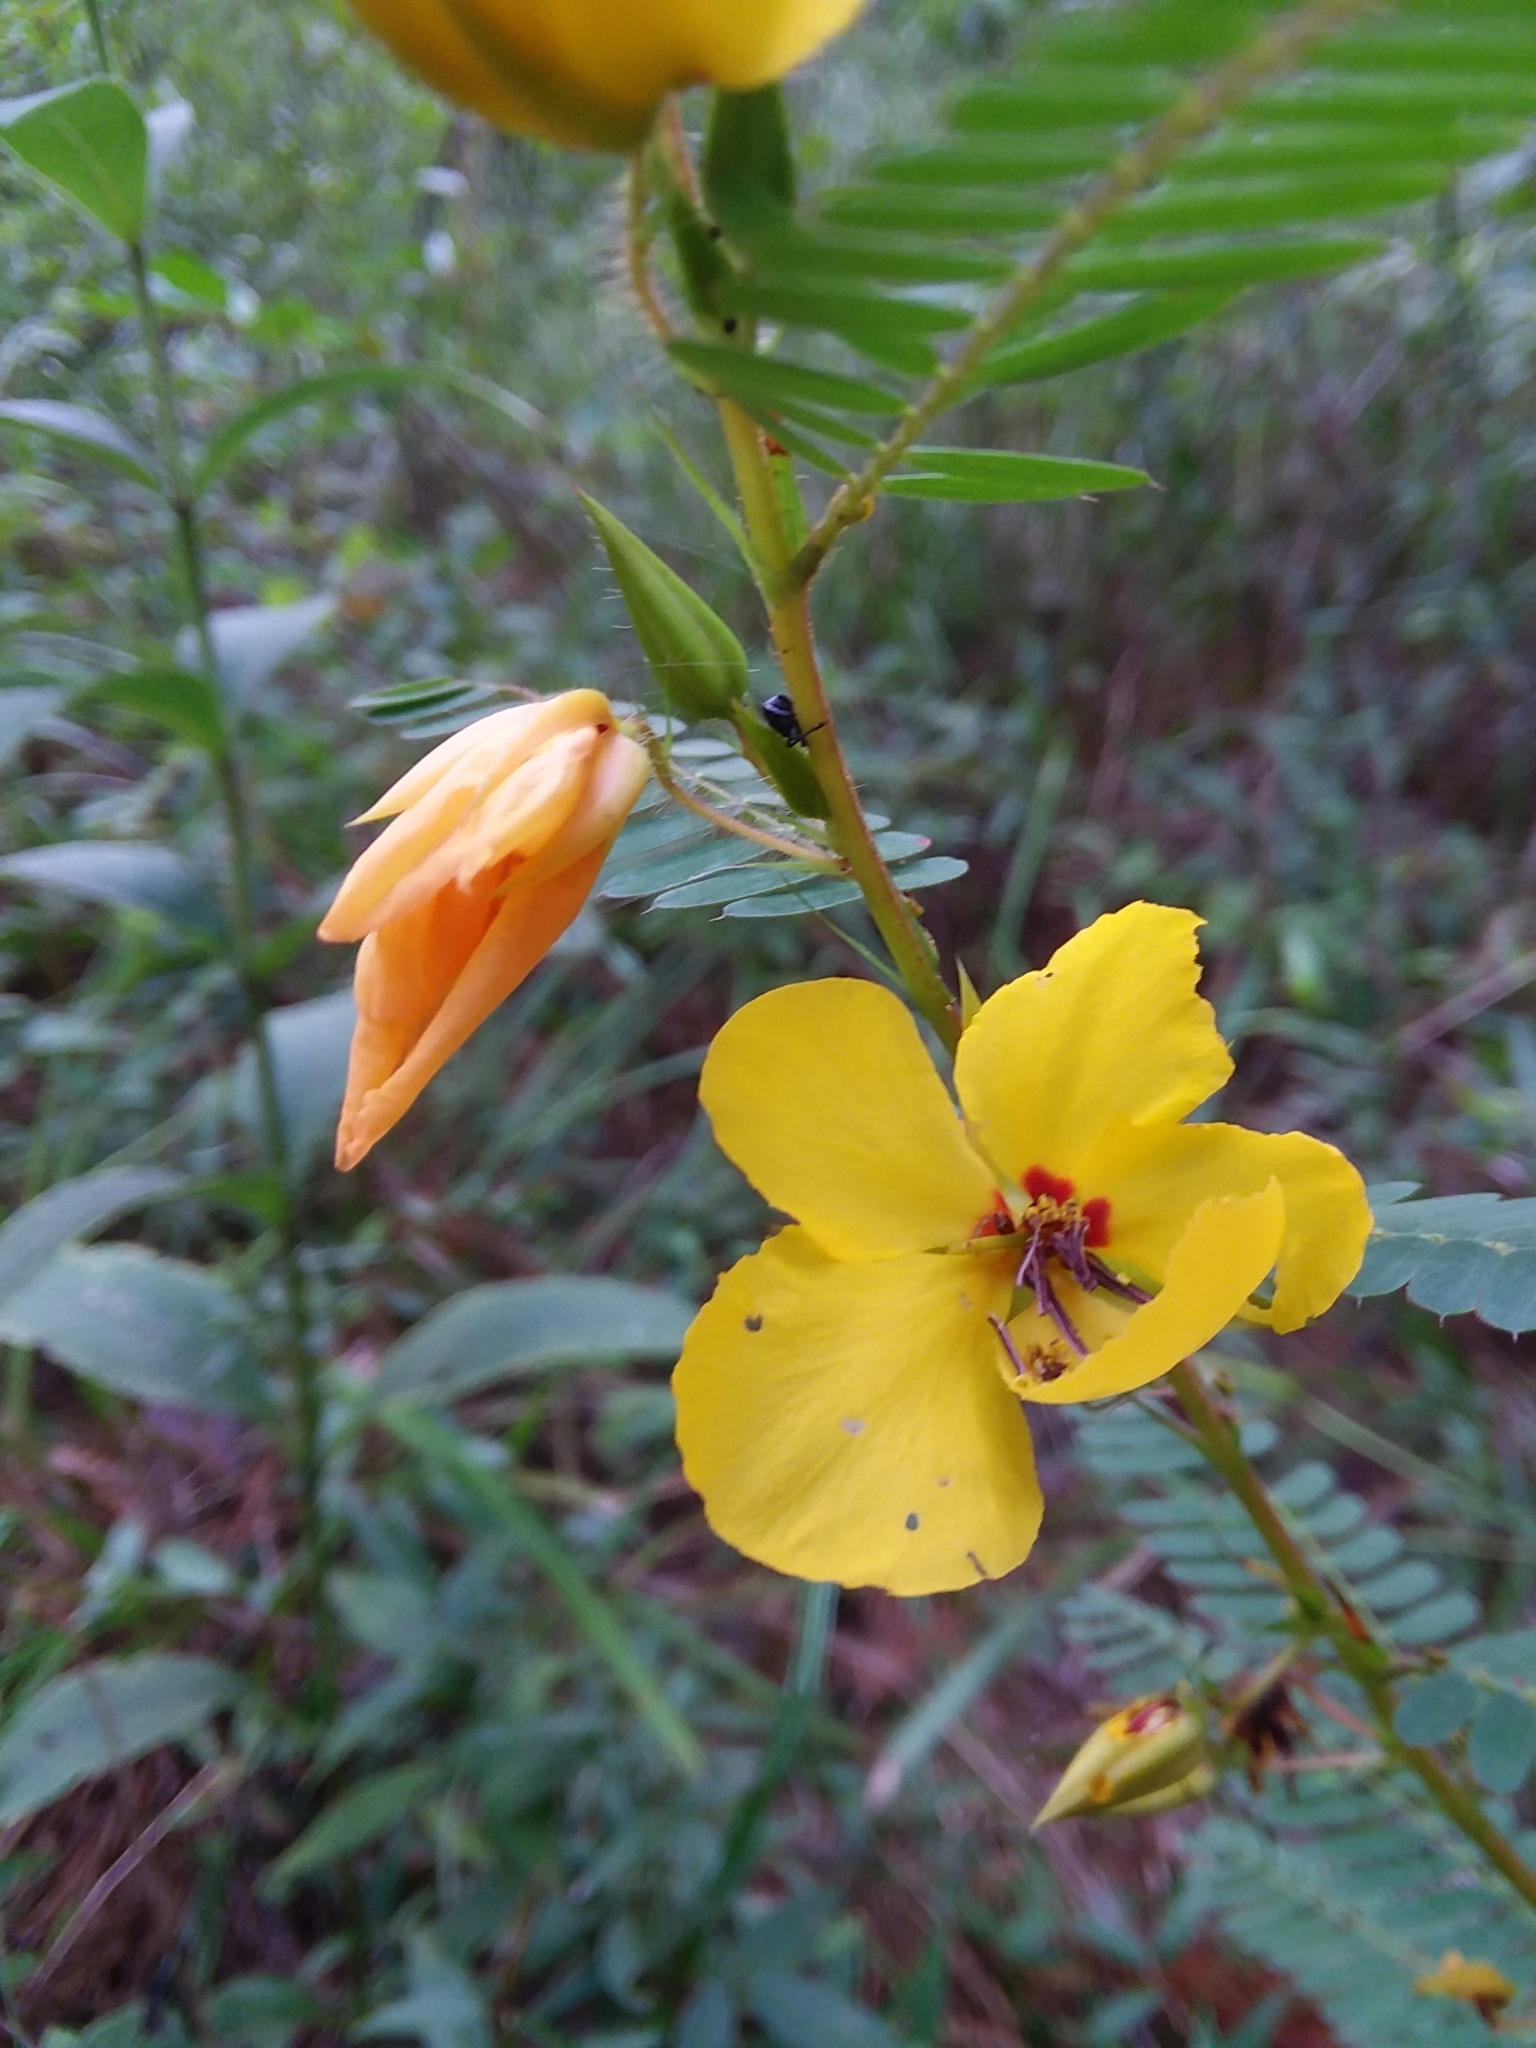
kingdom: Plantae
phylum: Tracheophyta
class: Magnoliopsida
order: Fabales
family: Fabaceae
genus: Chamaecrista
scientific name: Chamaecrista fasciculata
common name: Golden cassia
